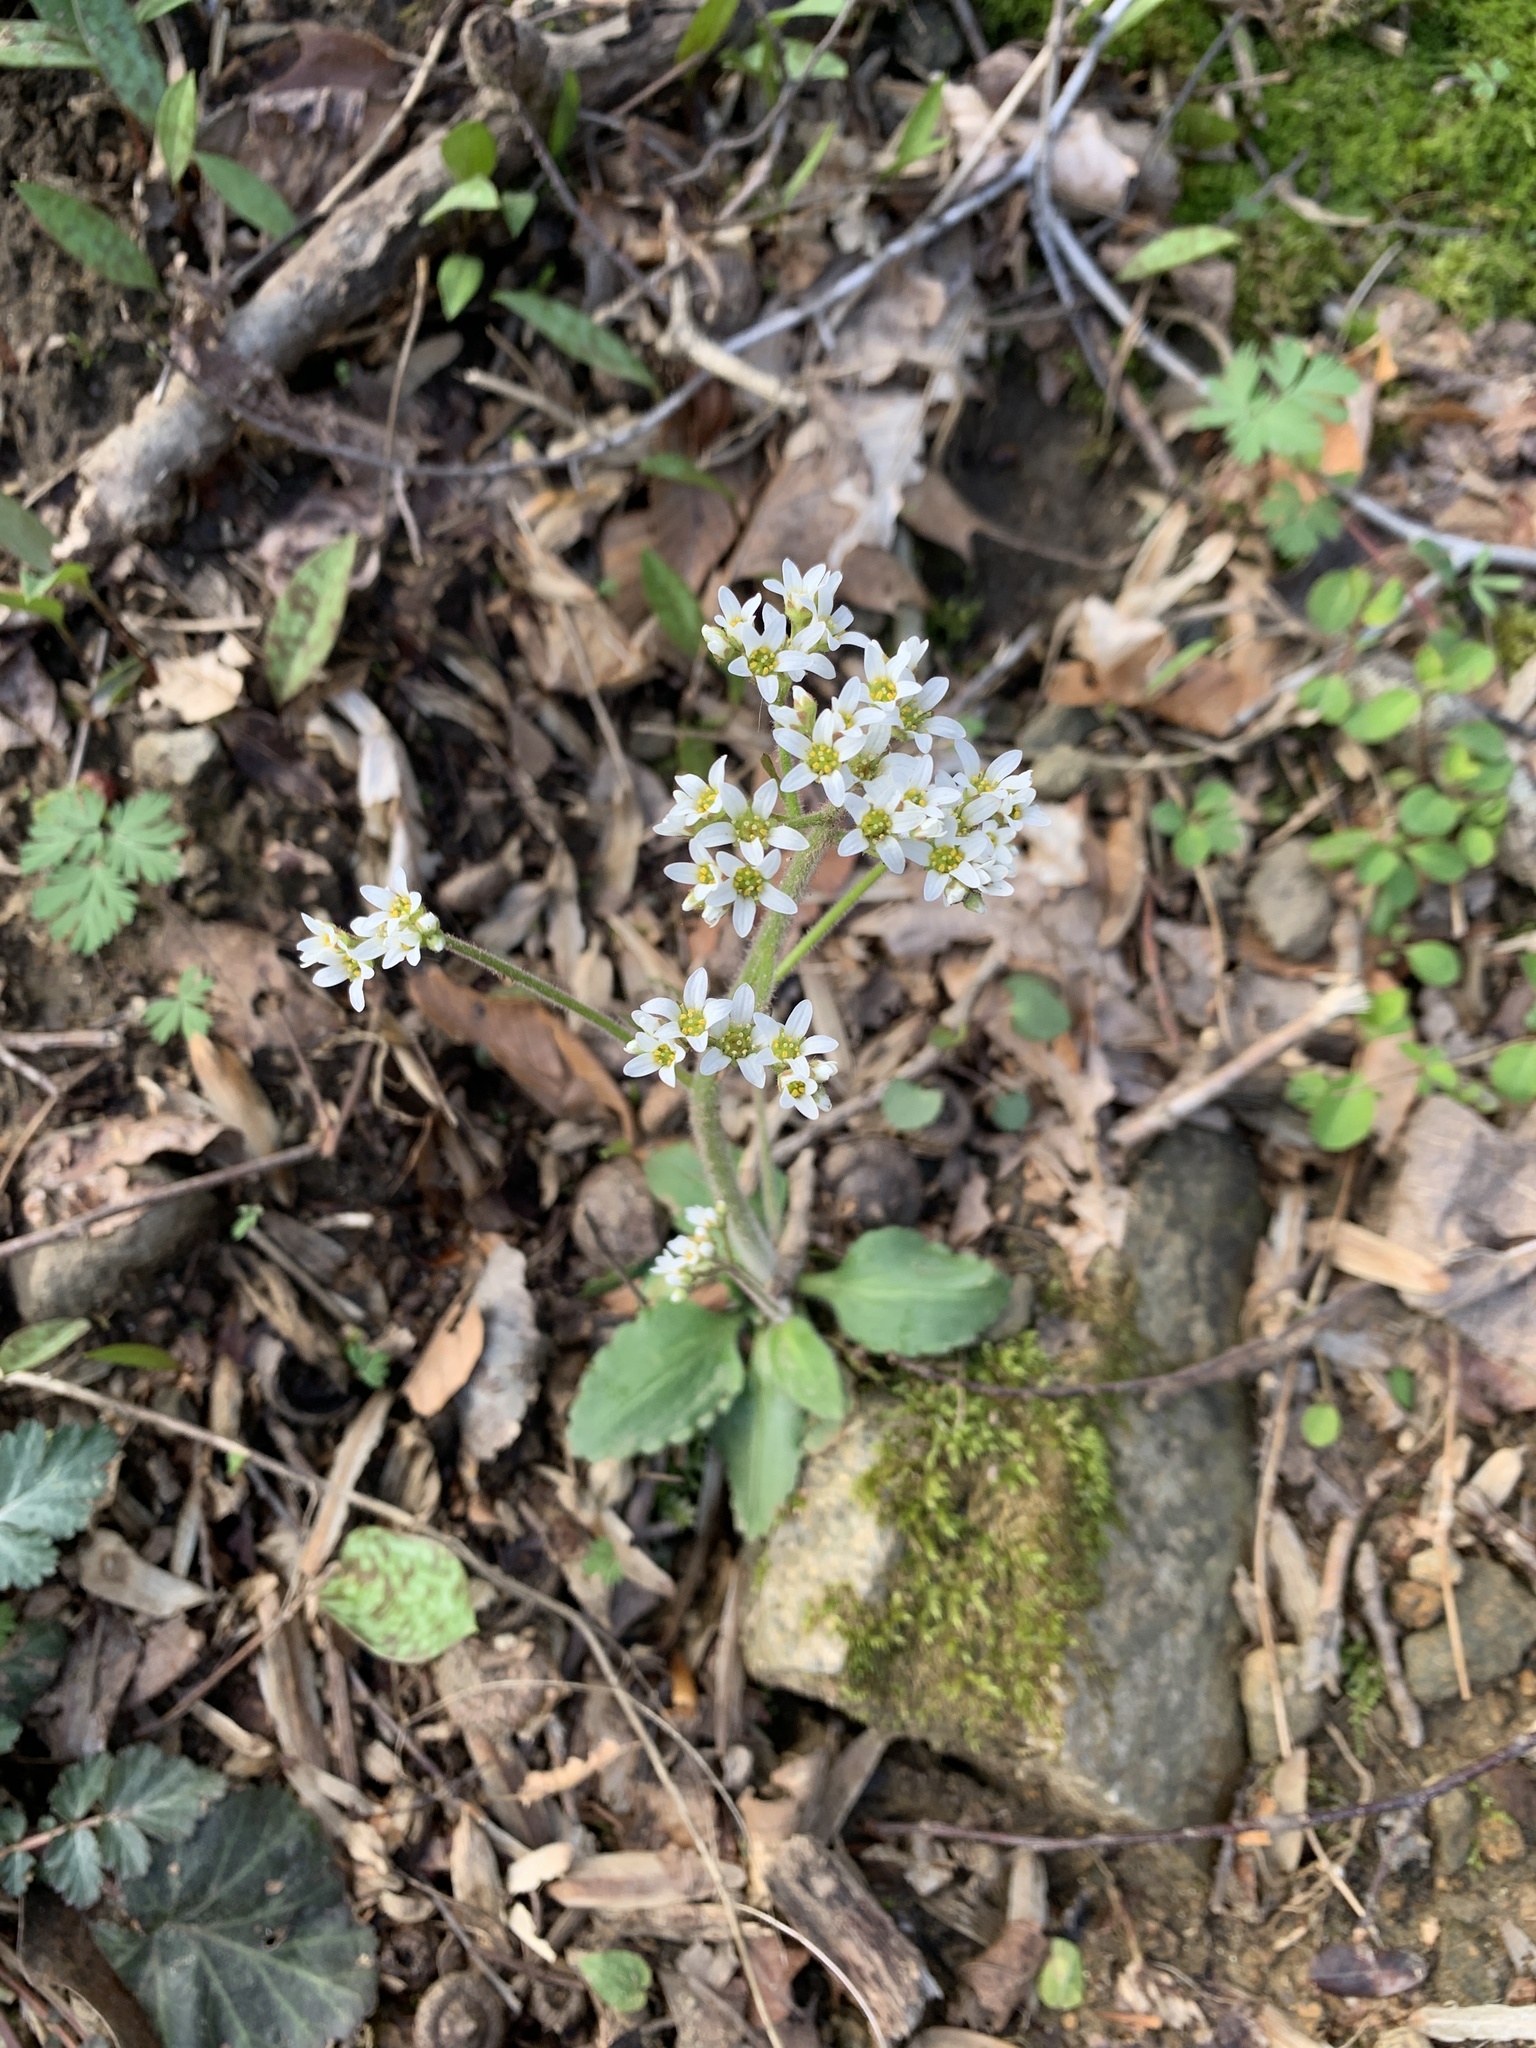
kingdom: Plantae
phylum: Tracheophyta
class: Magnoliopsida
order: Saxifragales
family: Saxifragaceae
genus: Micranthes
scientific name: Micranthes virginiensis
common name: Early saxifrage
